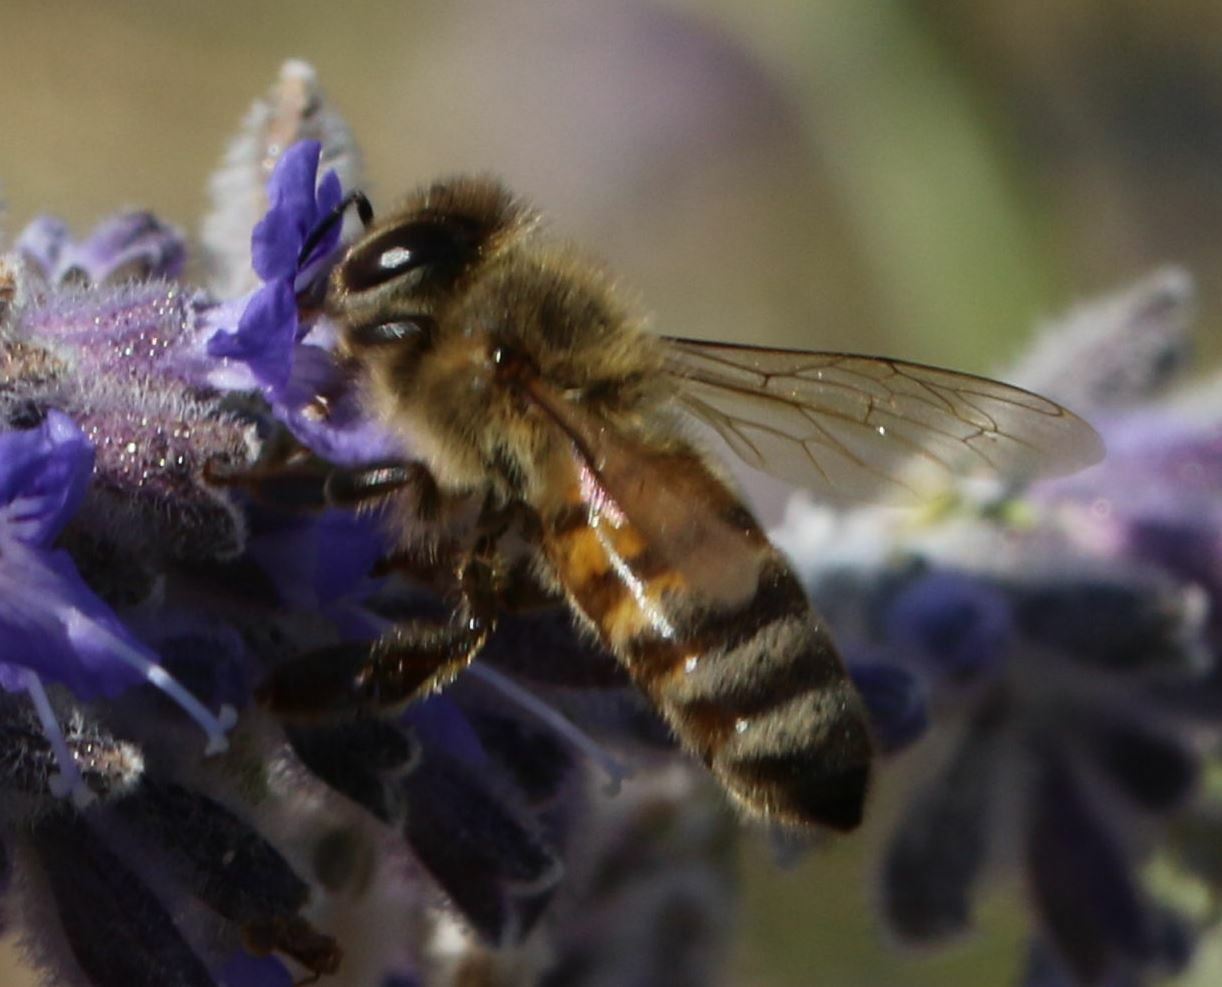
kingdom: Animalia
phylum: Arthropoda
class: Insecta
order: Hymenoptera
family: Apidae
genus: Apis
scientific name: Apis mellifera
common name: Honey bee
